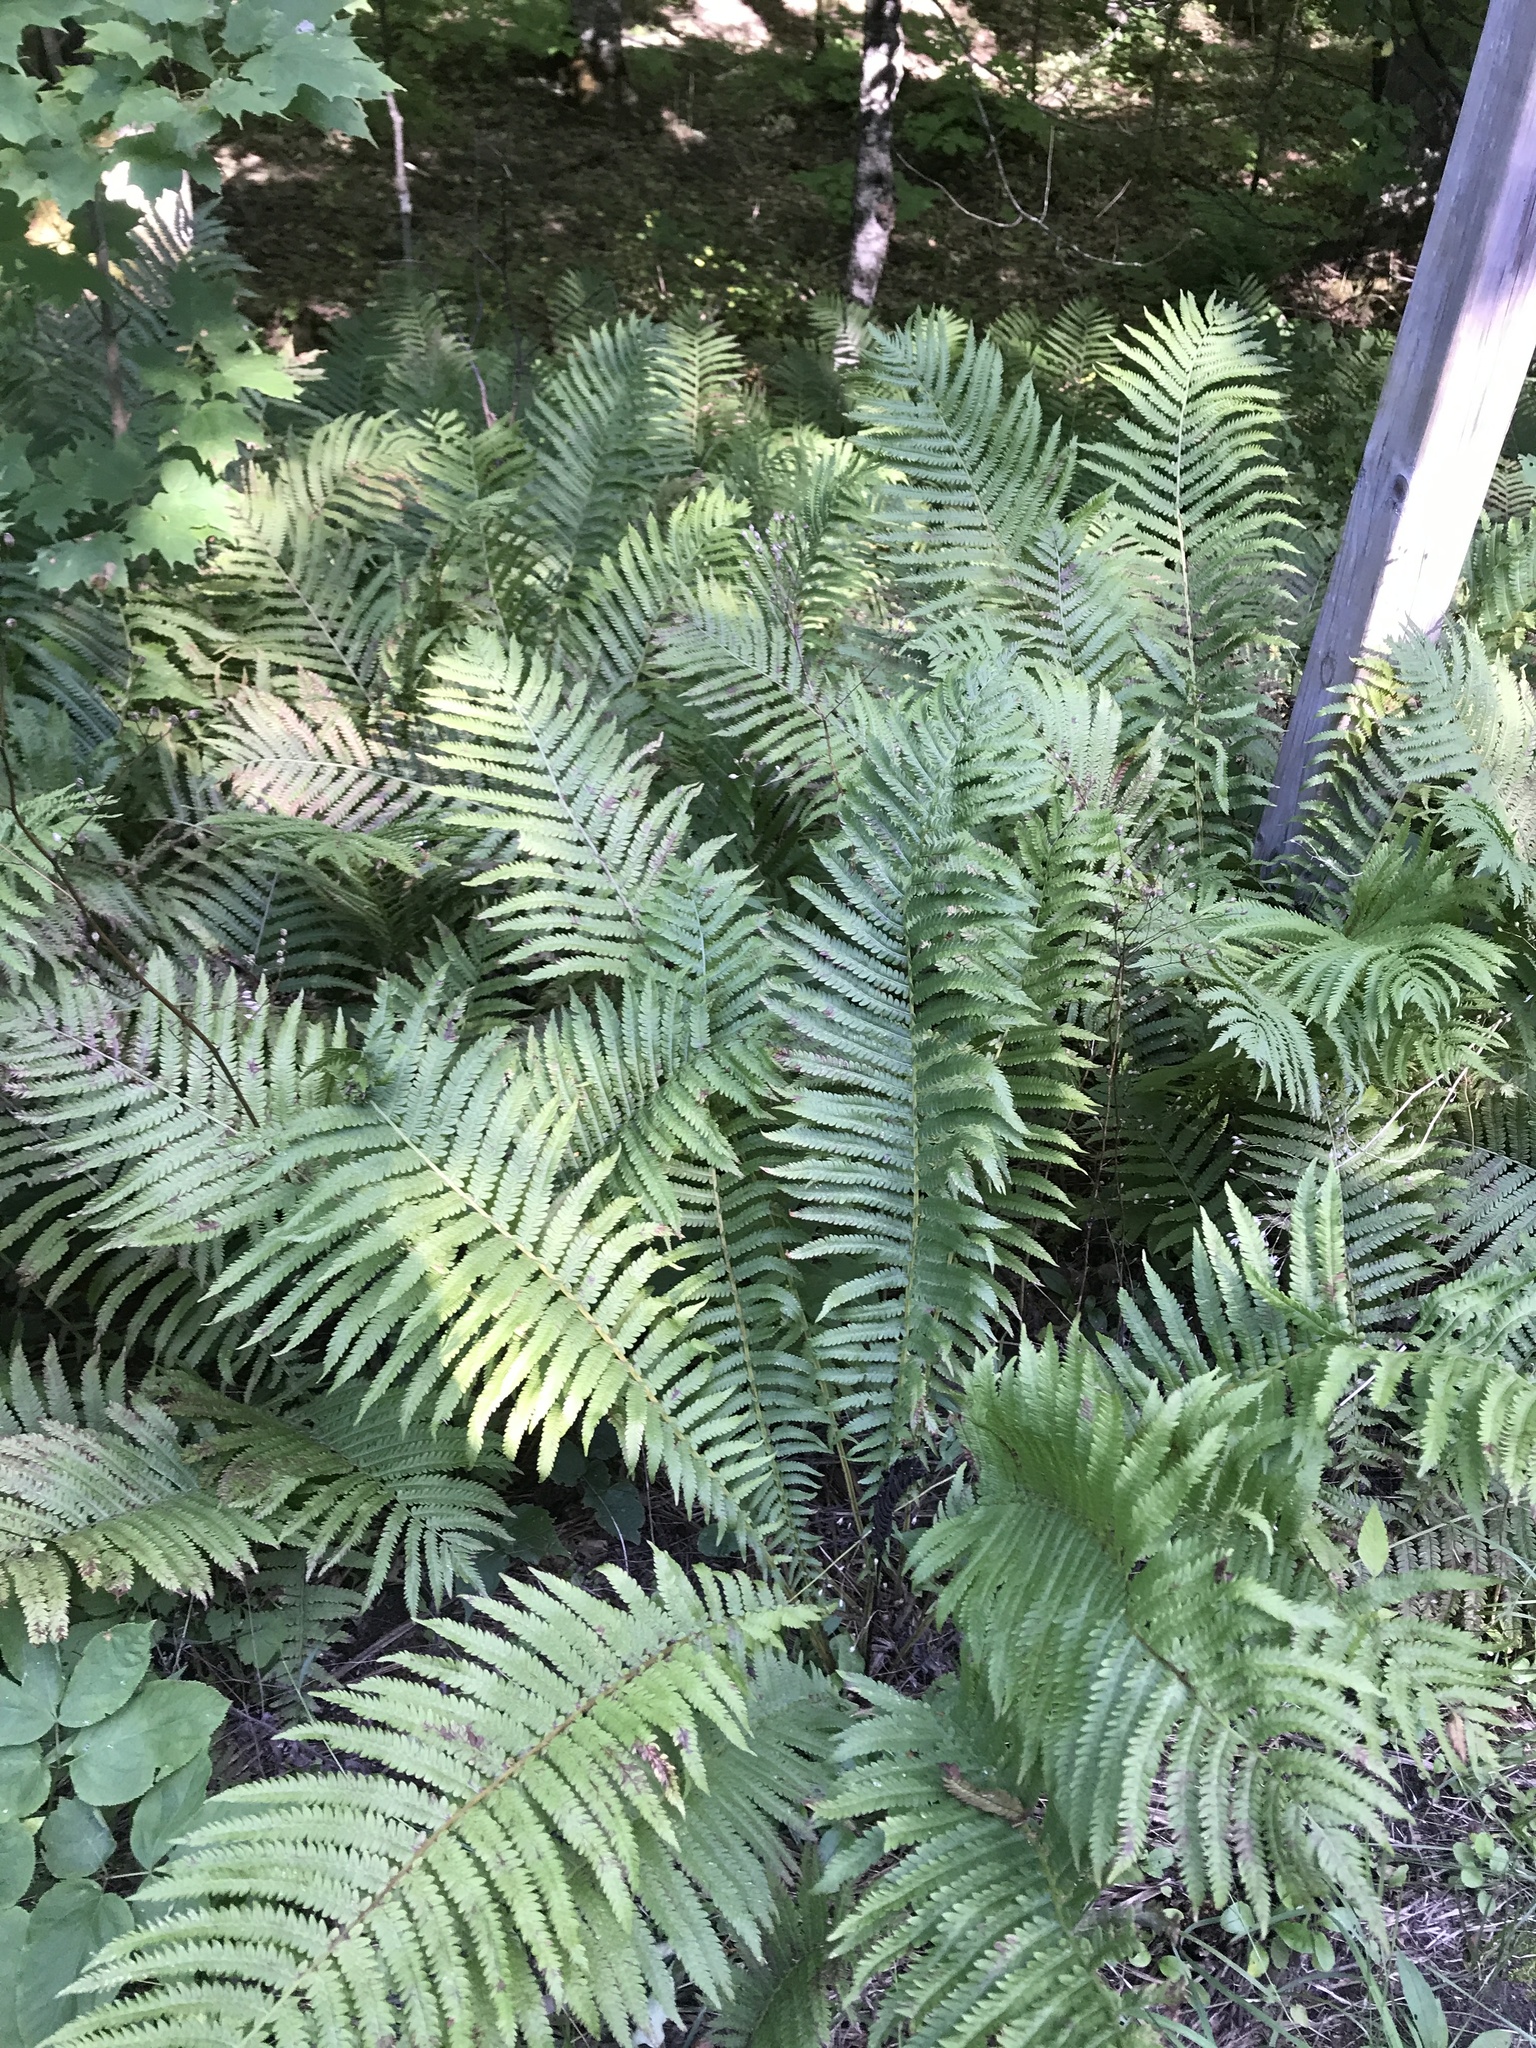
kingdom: Plantae
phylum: Tracheophyta
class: Polypodiopsida
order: Polypodiales
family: Onocleaceae
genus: Matteuccia
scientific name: Matteuccia struthiopteris
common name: Ostrich fern
